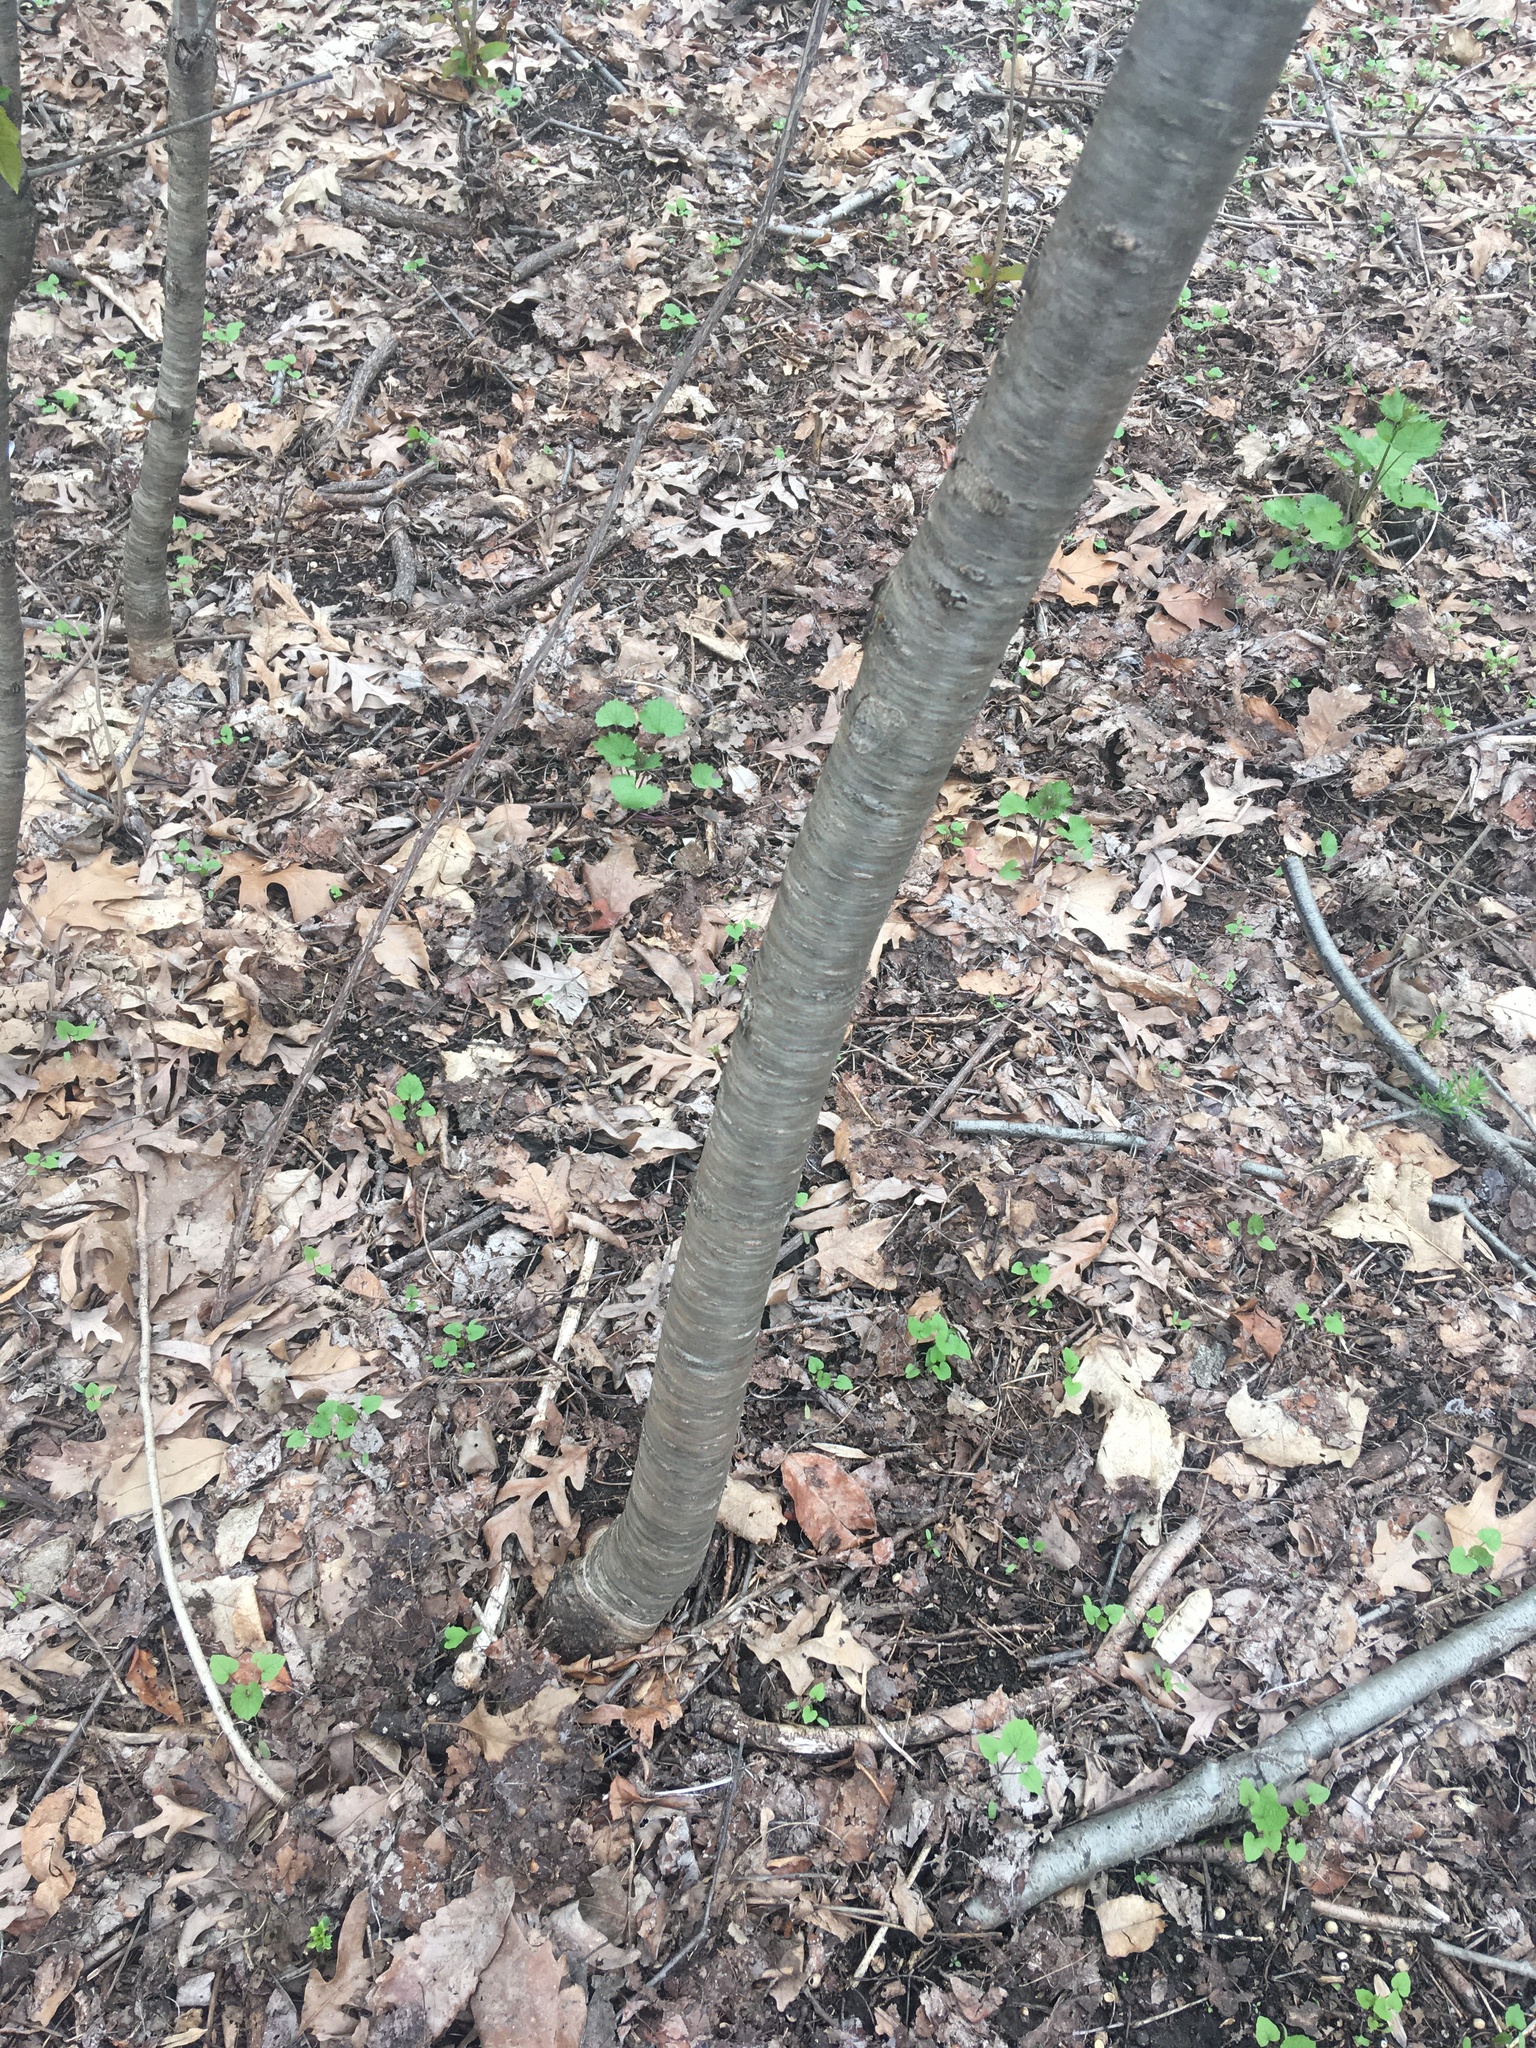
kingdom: Plantae
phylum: Tracheophyta
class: Magnoliopsida
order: Rosales
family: Rosaceae
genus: Prunus
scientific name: Prunus avium
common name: Sweet cherry
